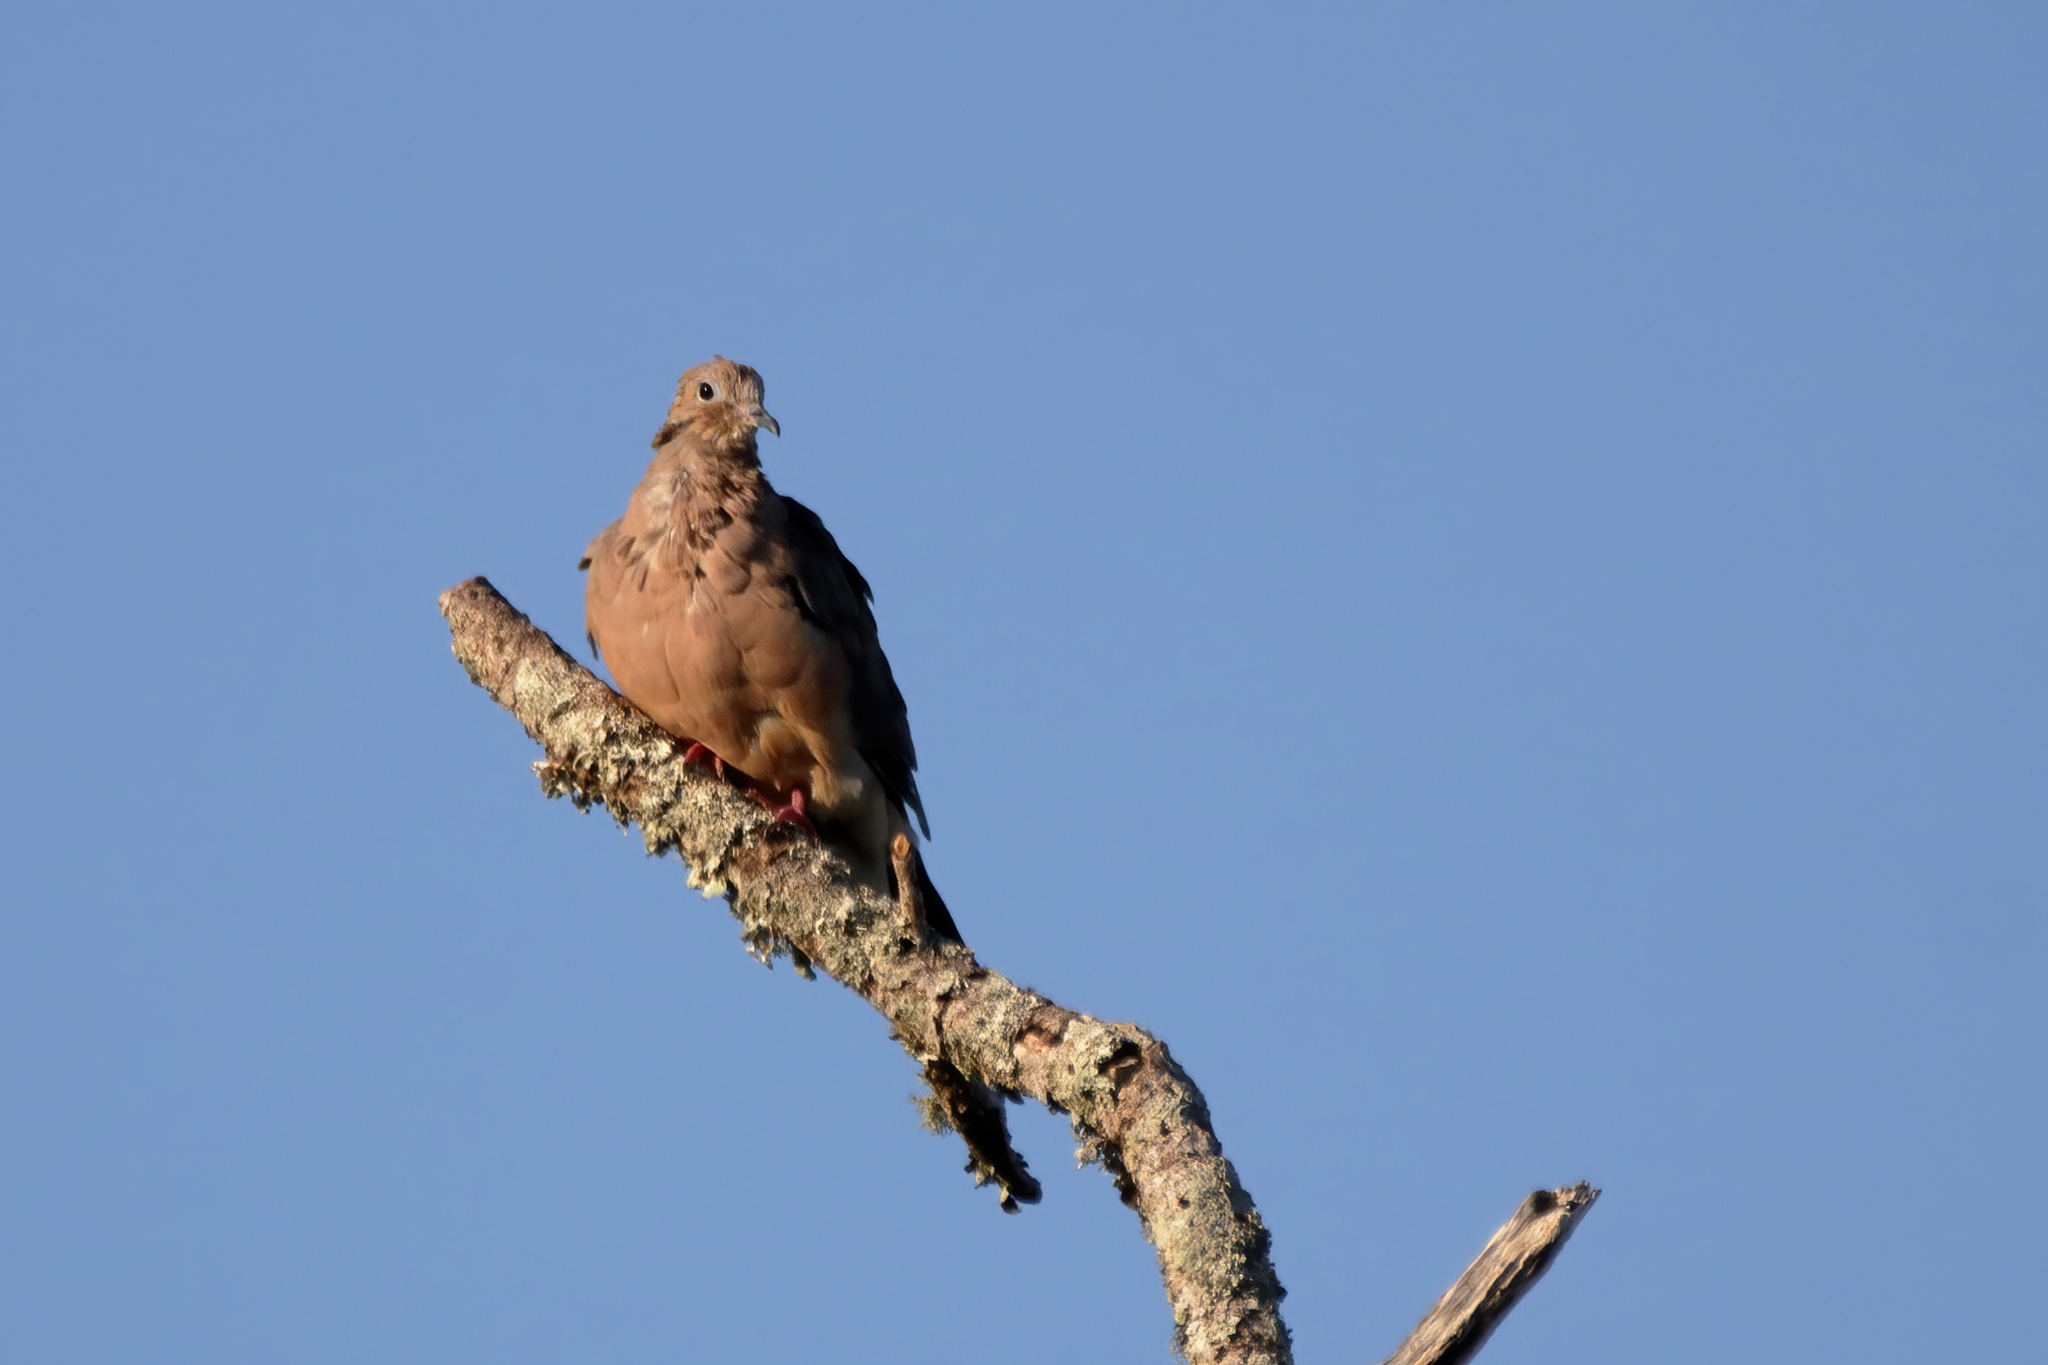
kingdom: Animalia
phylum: Chordata
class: Aves
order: Columbiformes
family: Columbidae
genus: Zenaida
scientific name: Zenaida macroura
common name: Mourning dove
